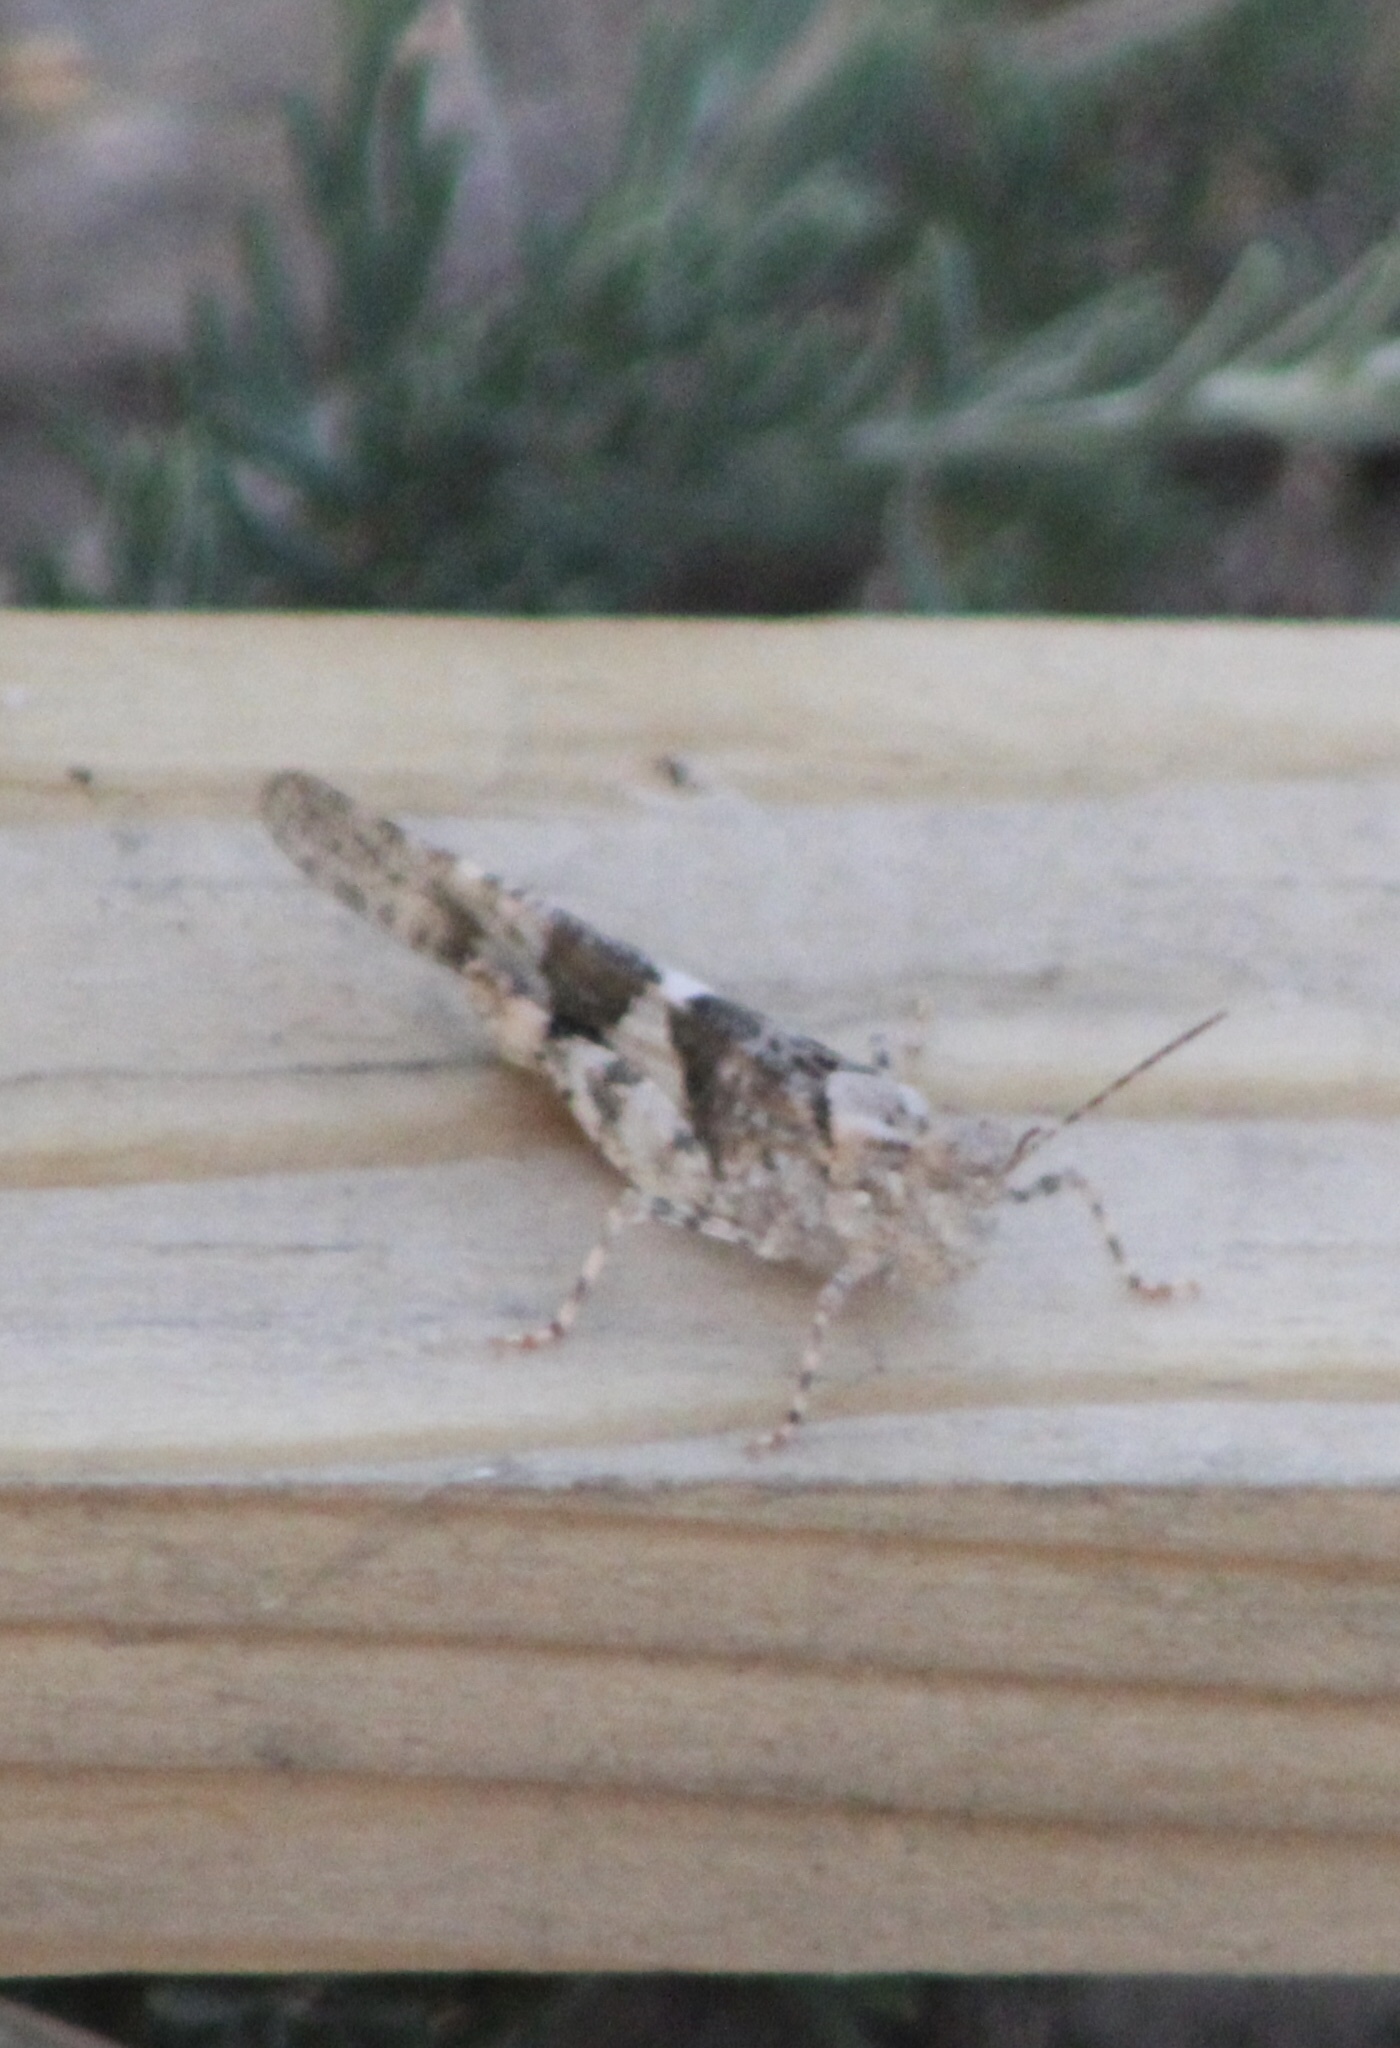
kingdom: Animalia
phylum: Arthropoda
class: Insecta
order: Orthoptera
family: Acrididae
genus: Trimerotropis
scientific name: Trimerotropis pallidipennis
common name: Pallid-winged grasshopper
